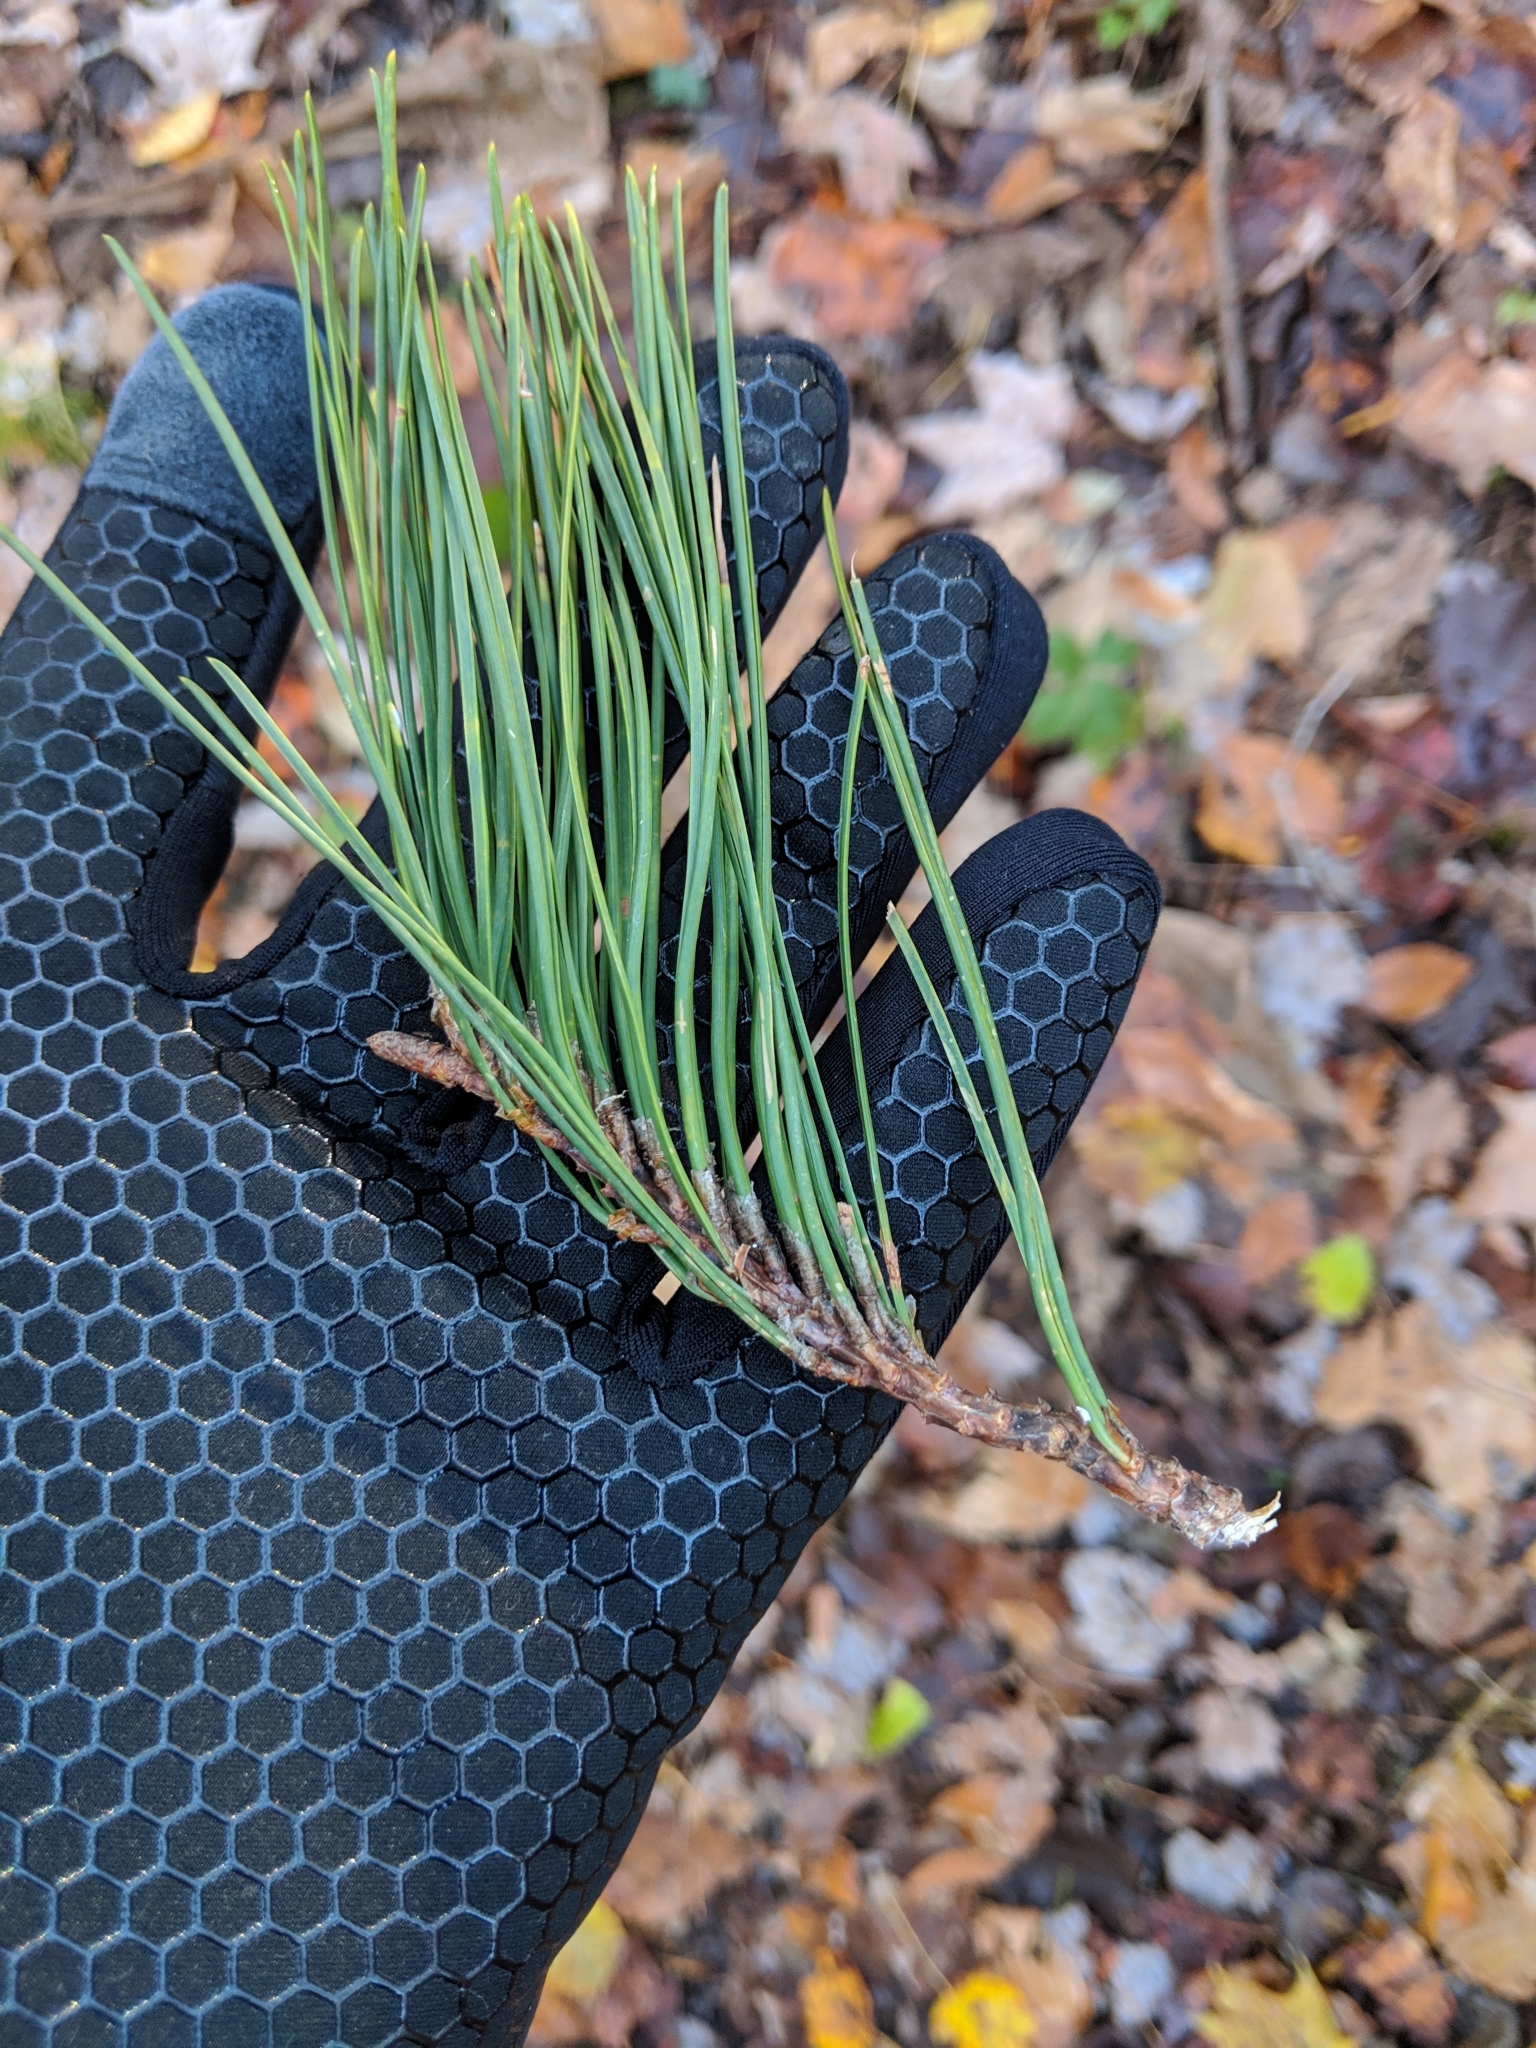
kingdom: Plantae
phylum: Tracheophyta
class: Pinopsida
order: Pinales
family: Pinaceae
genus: Pinus
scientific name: Pinus echinata
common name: Shortleaf pine
